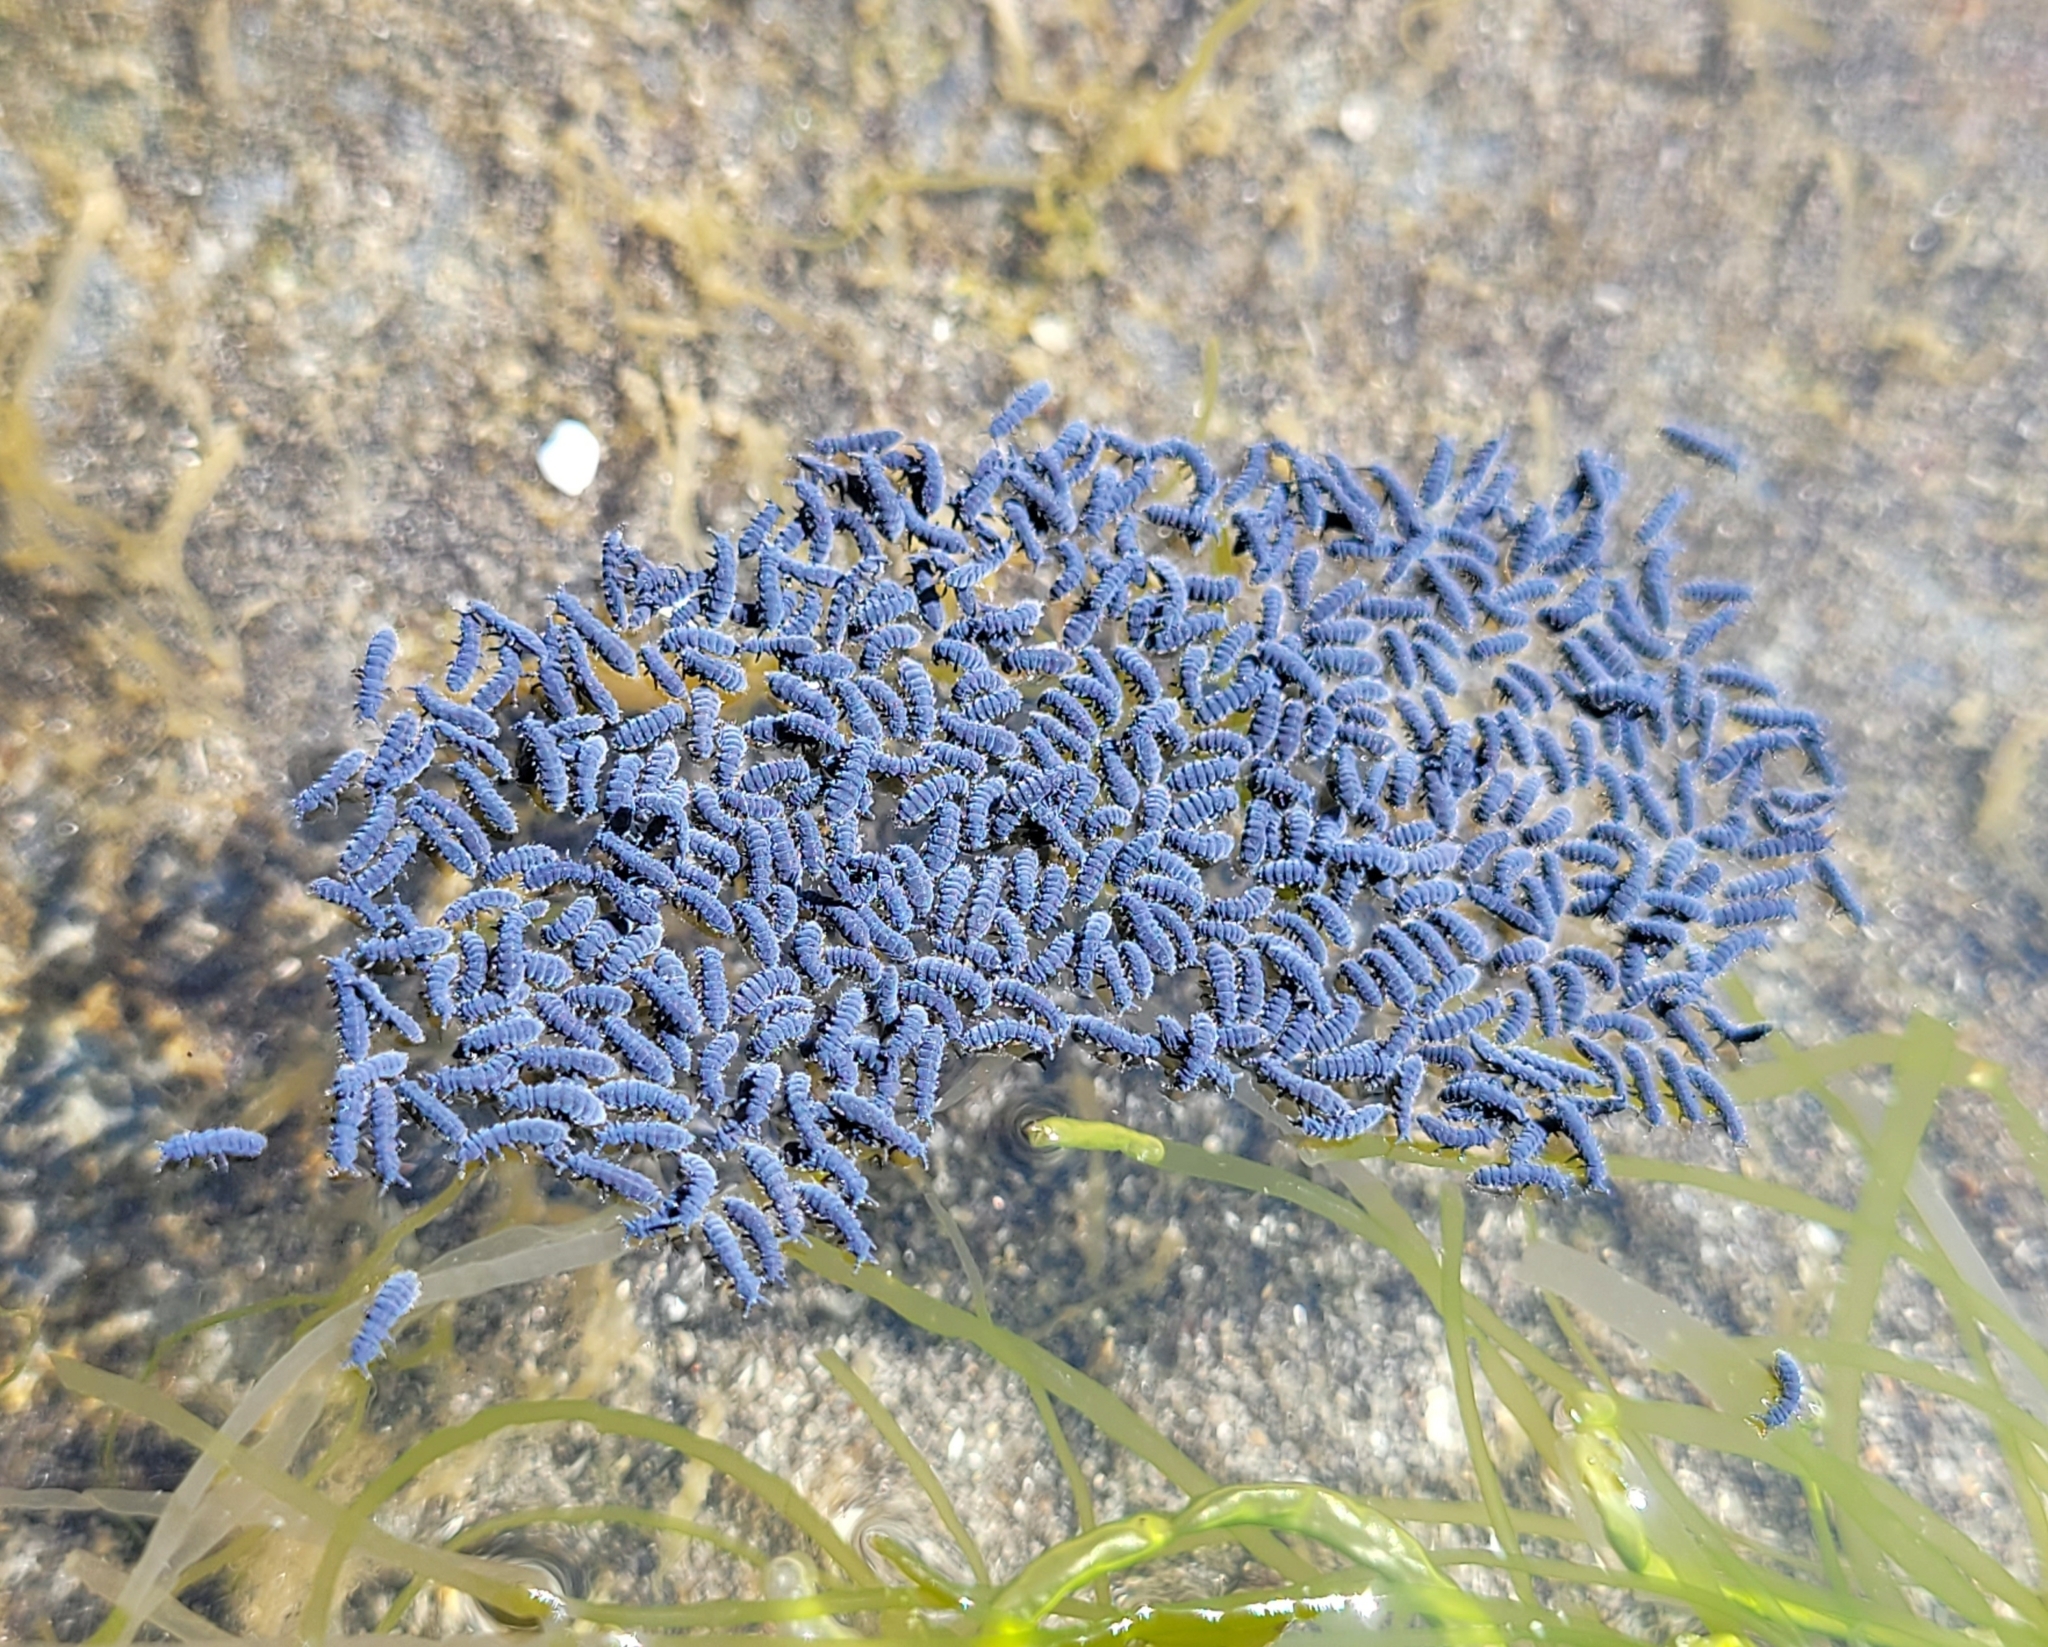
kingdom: Animalia
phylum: Arthropoda
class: Collembola
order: Poduromorpha
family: Neanuridae
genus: Anurida
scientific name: Anurida maritima
